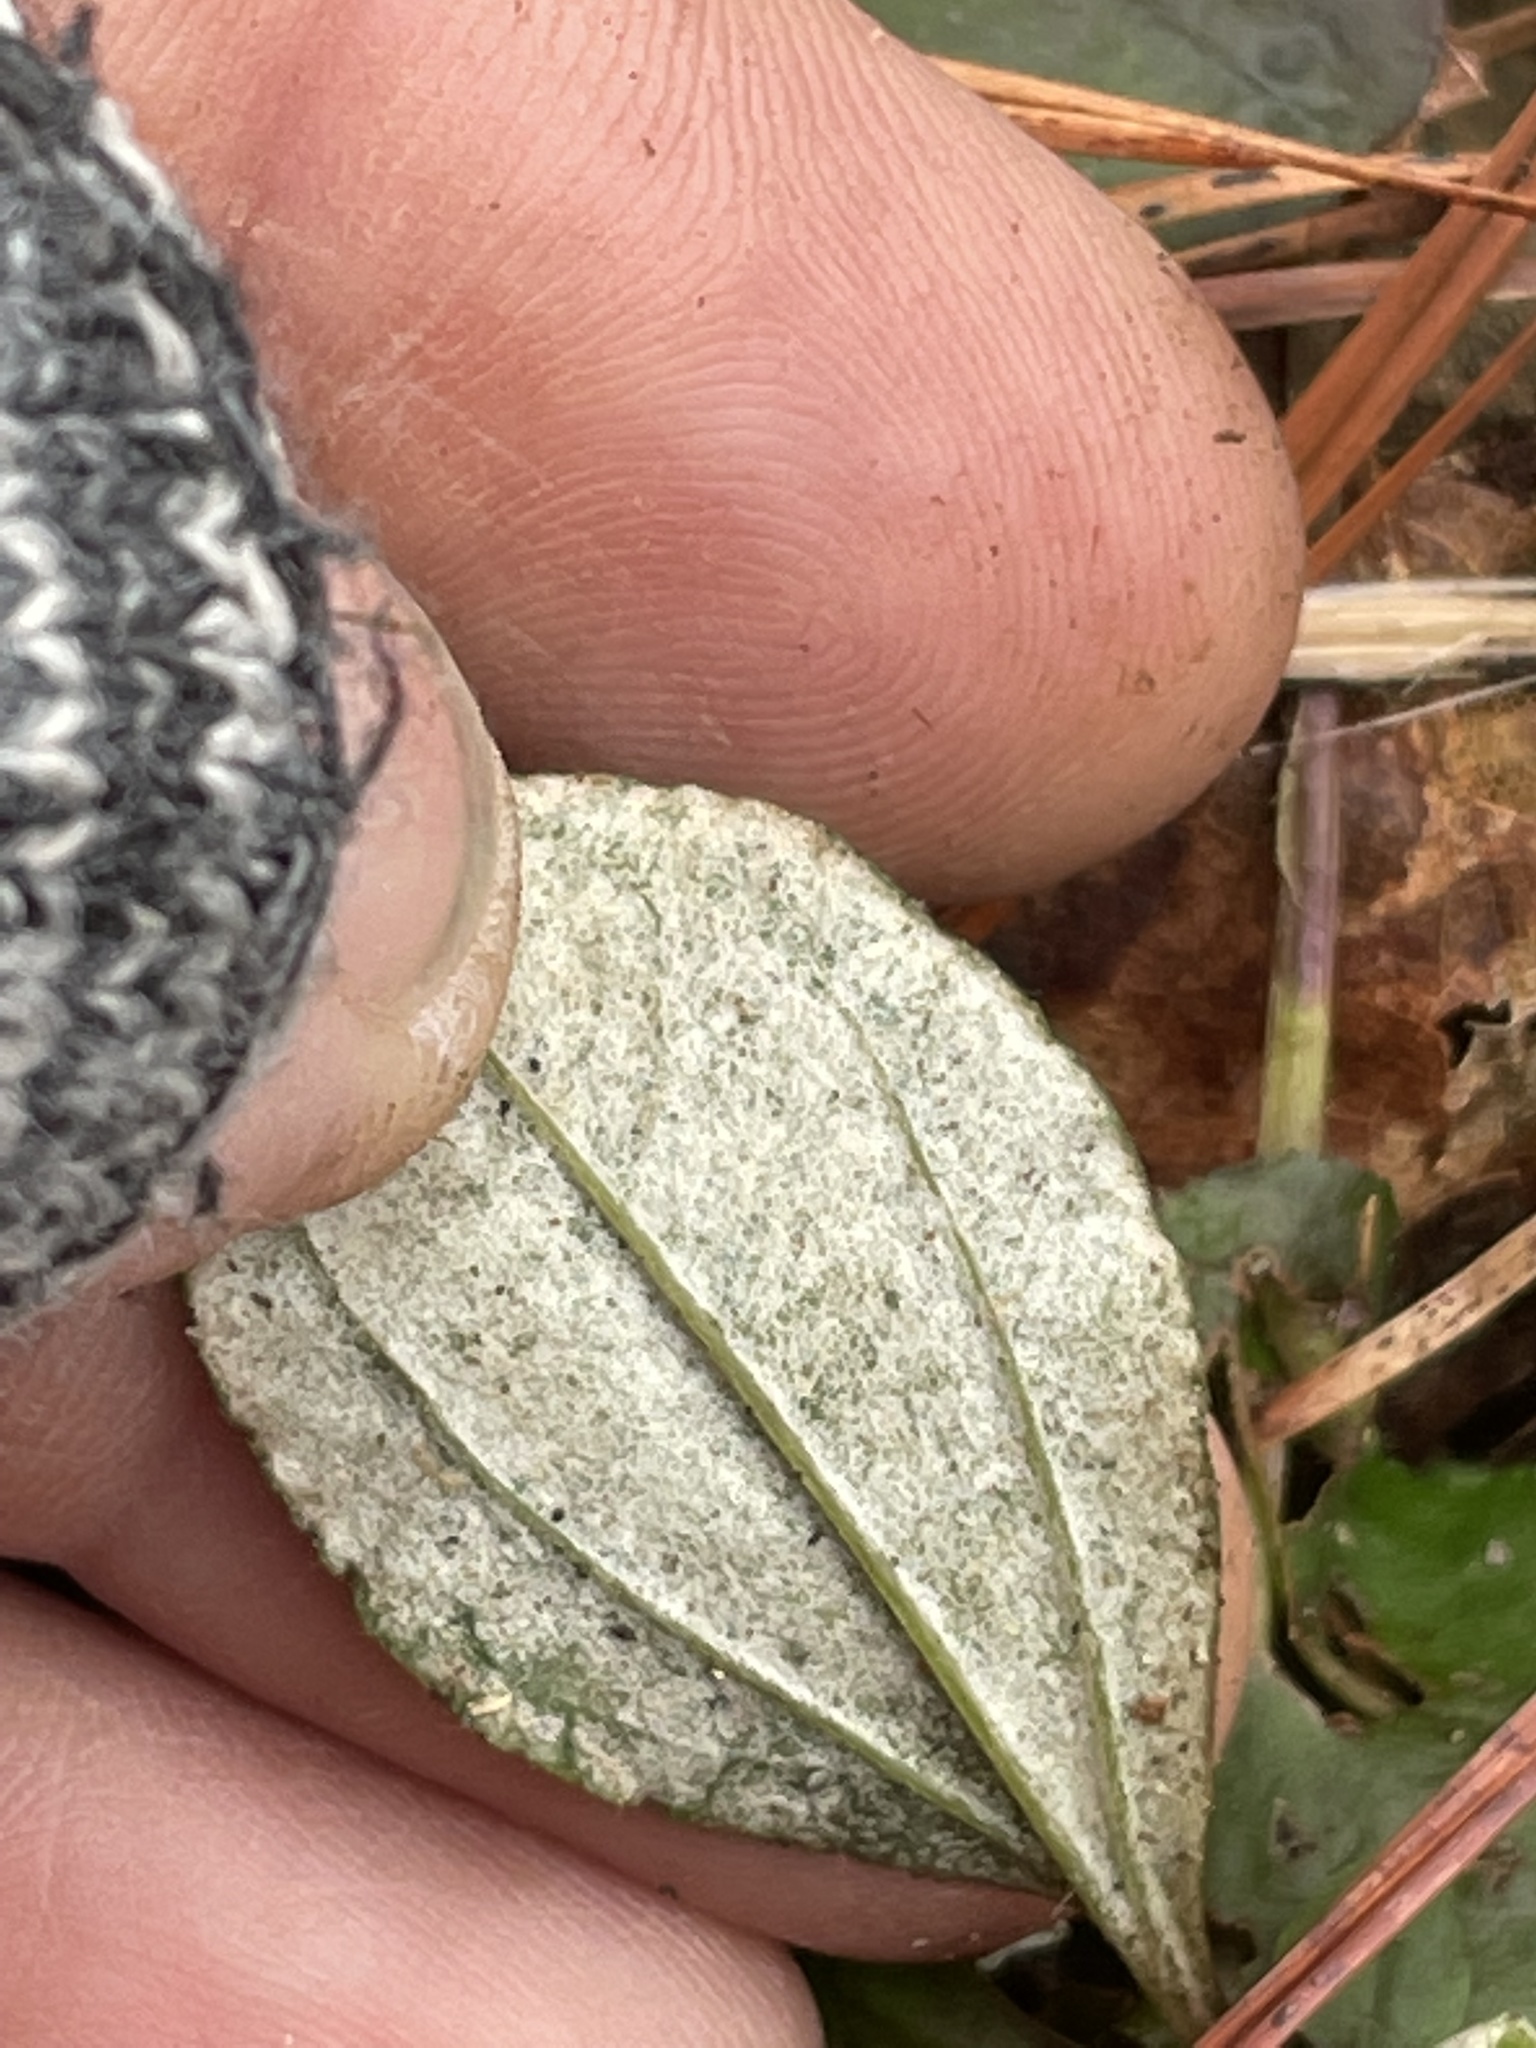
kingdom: Plantae
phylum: Tracheophyta
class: Magnoliopsida
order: Asterales
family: Asteraceae
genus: Antennaria
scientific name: Antennaria solitaria
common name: Single-head pussytoes
